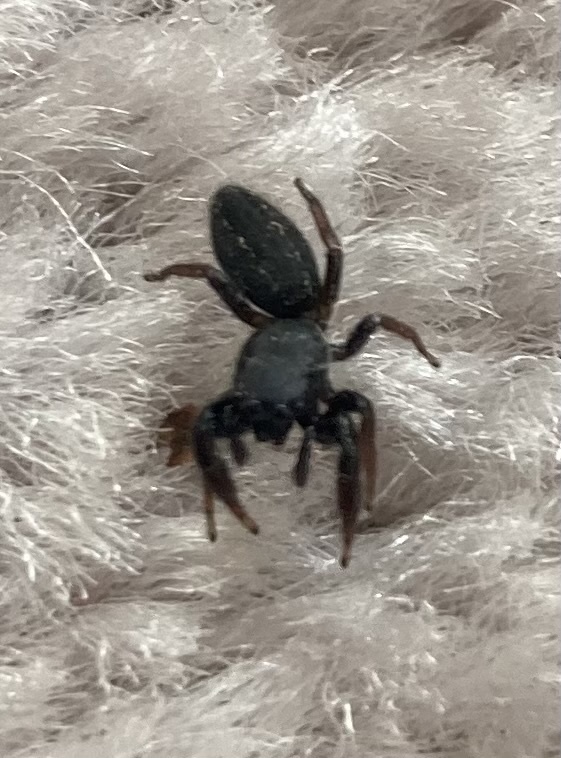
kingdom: Animalia
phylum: Arthropoda
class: Arachnida
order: Araneae
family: Salticidae
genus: Metacyrba
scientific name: Metacyrba taeniola
